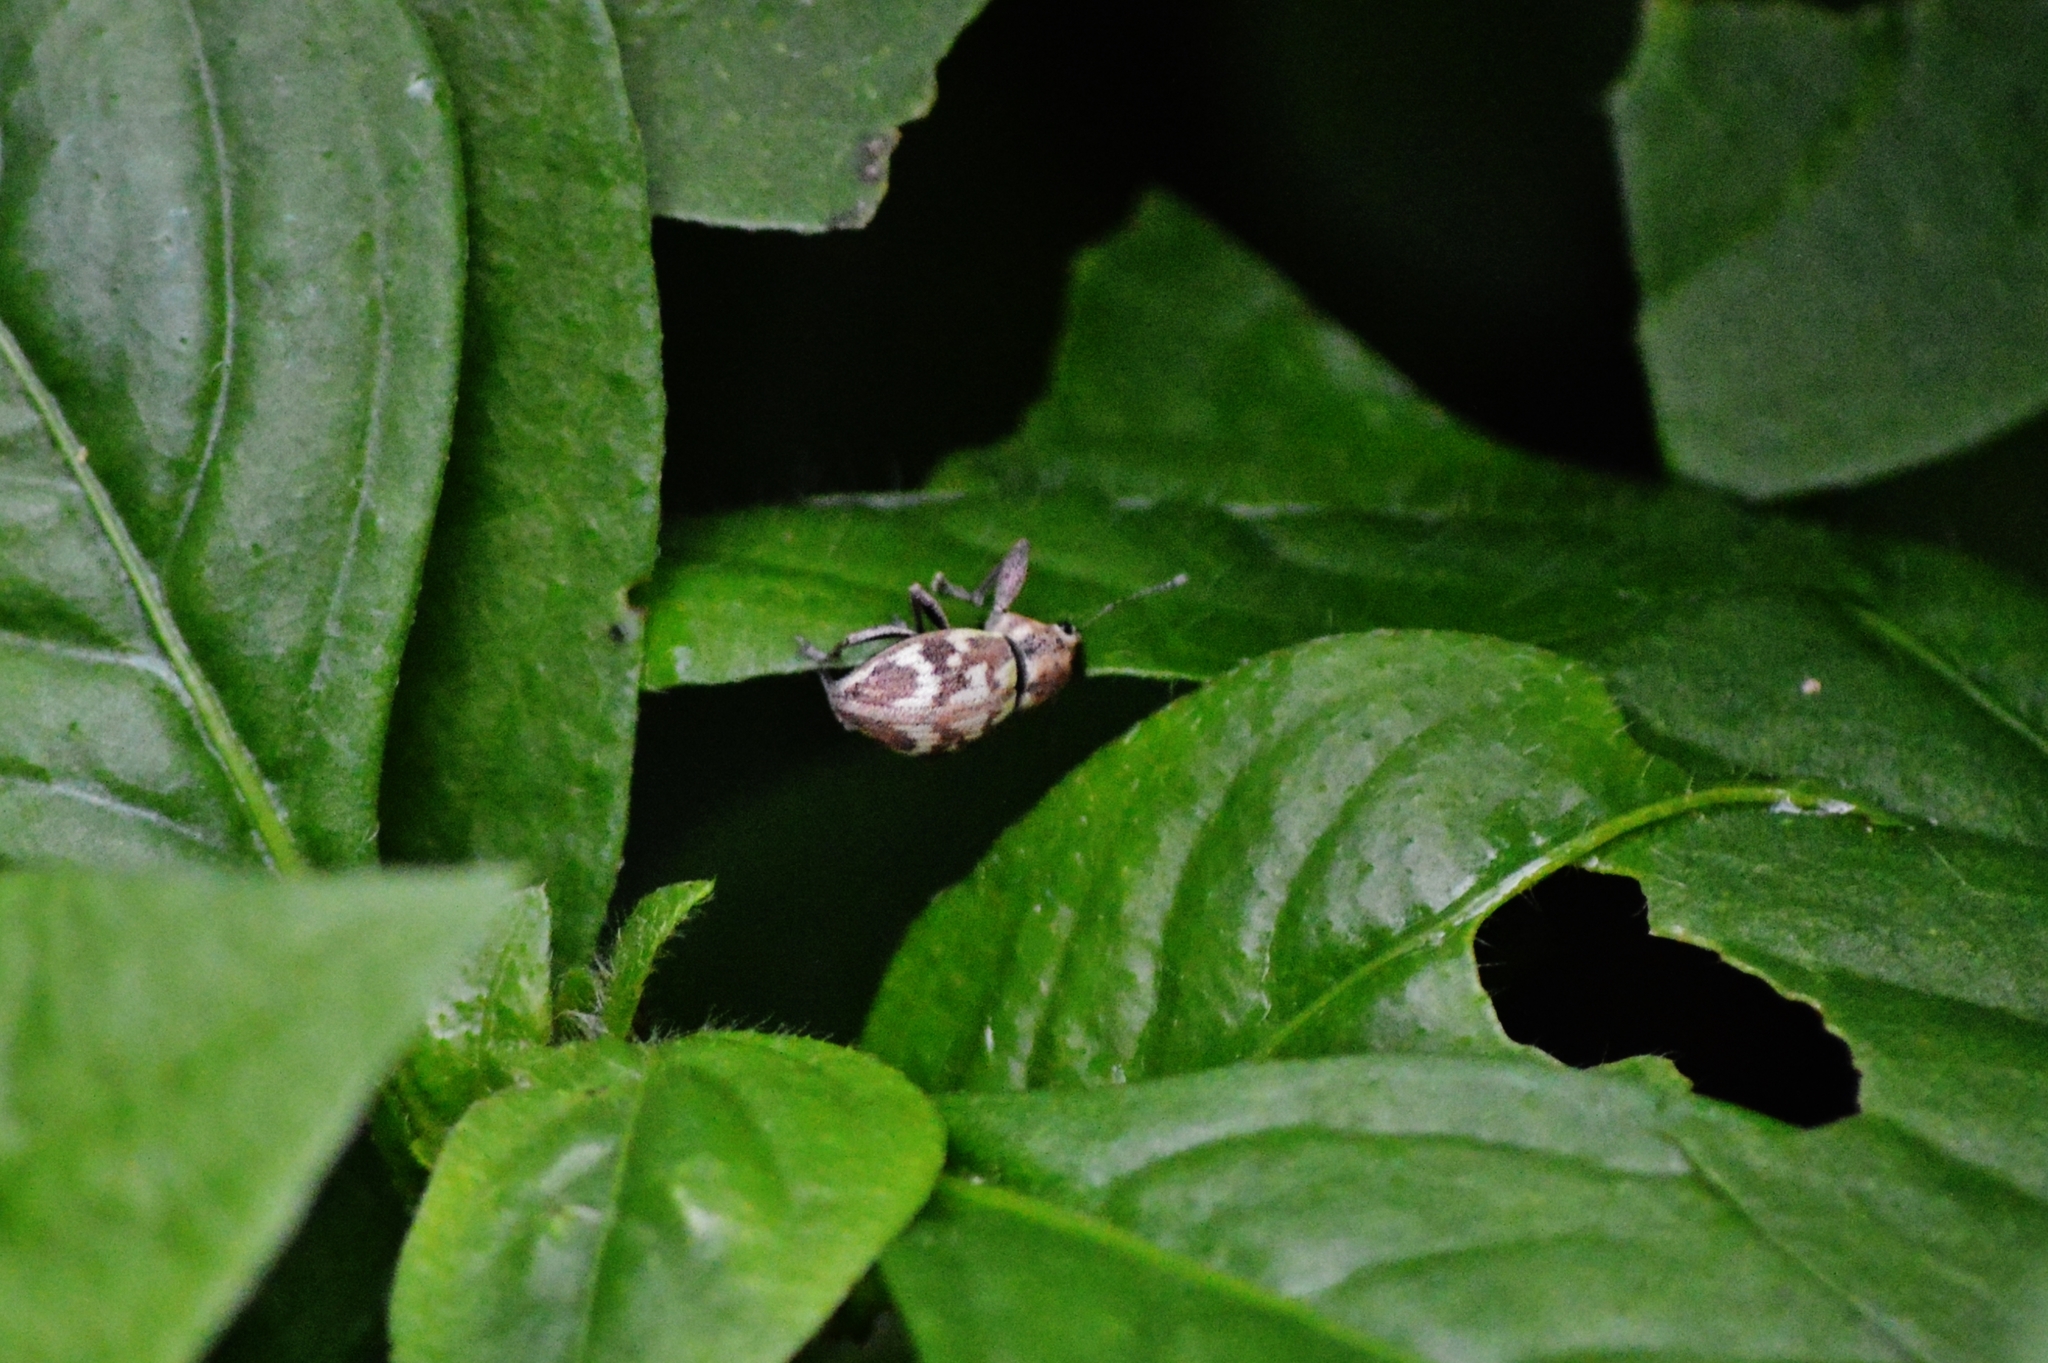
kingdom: Animalia
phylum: Arthropoda
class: Insecta
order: Coleoptera
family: Curculionidae
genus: Parapantomorus
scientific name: Parapantomorus fluctuosus
